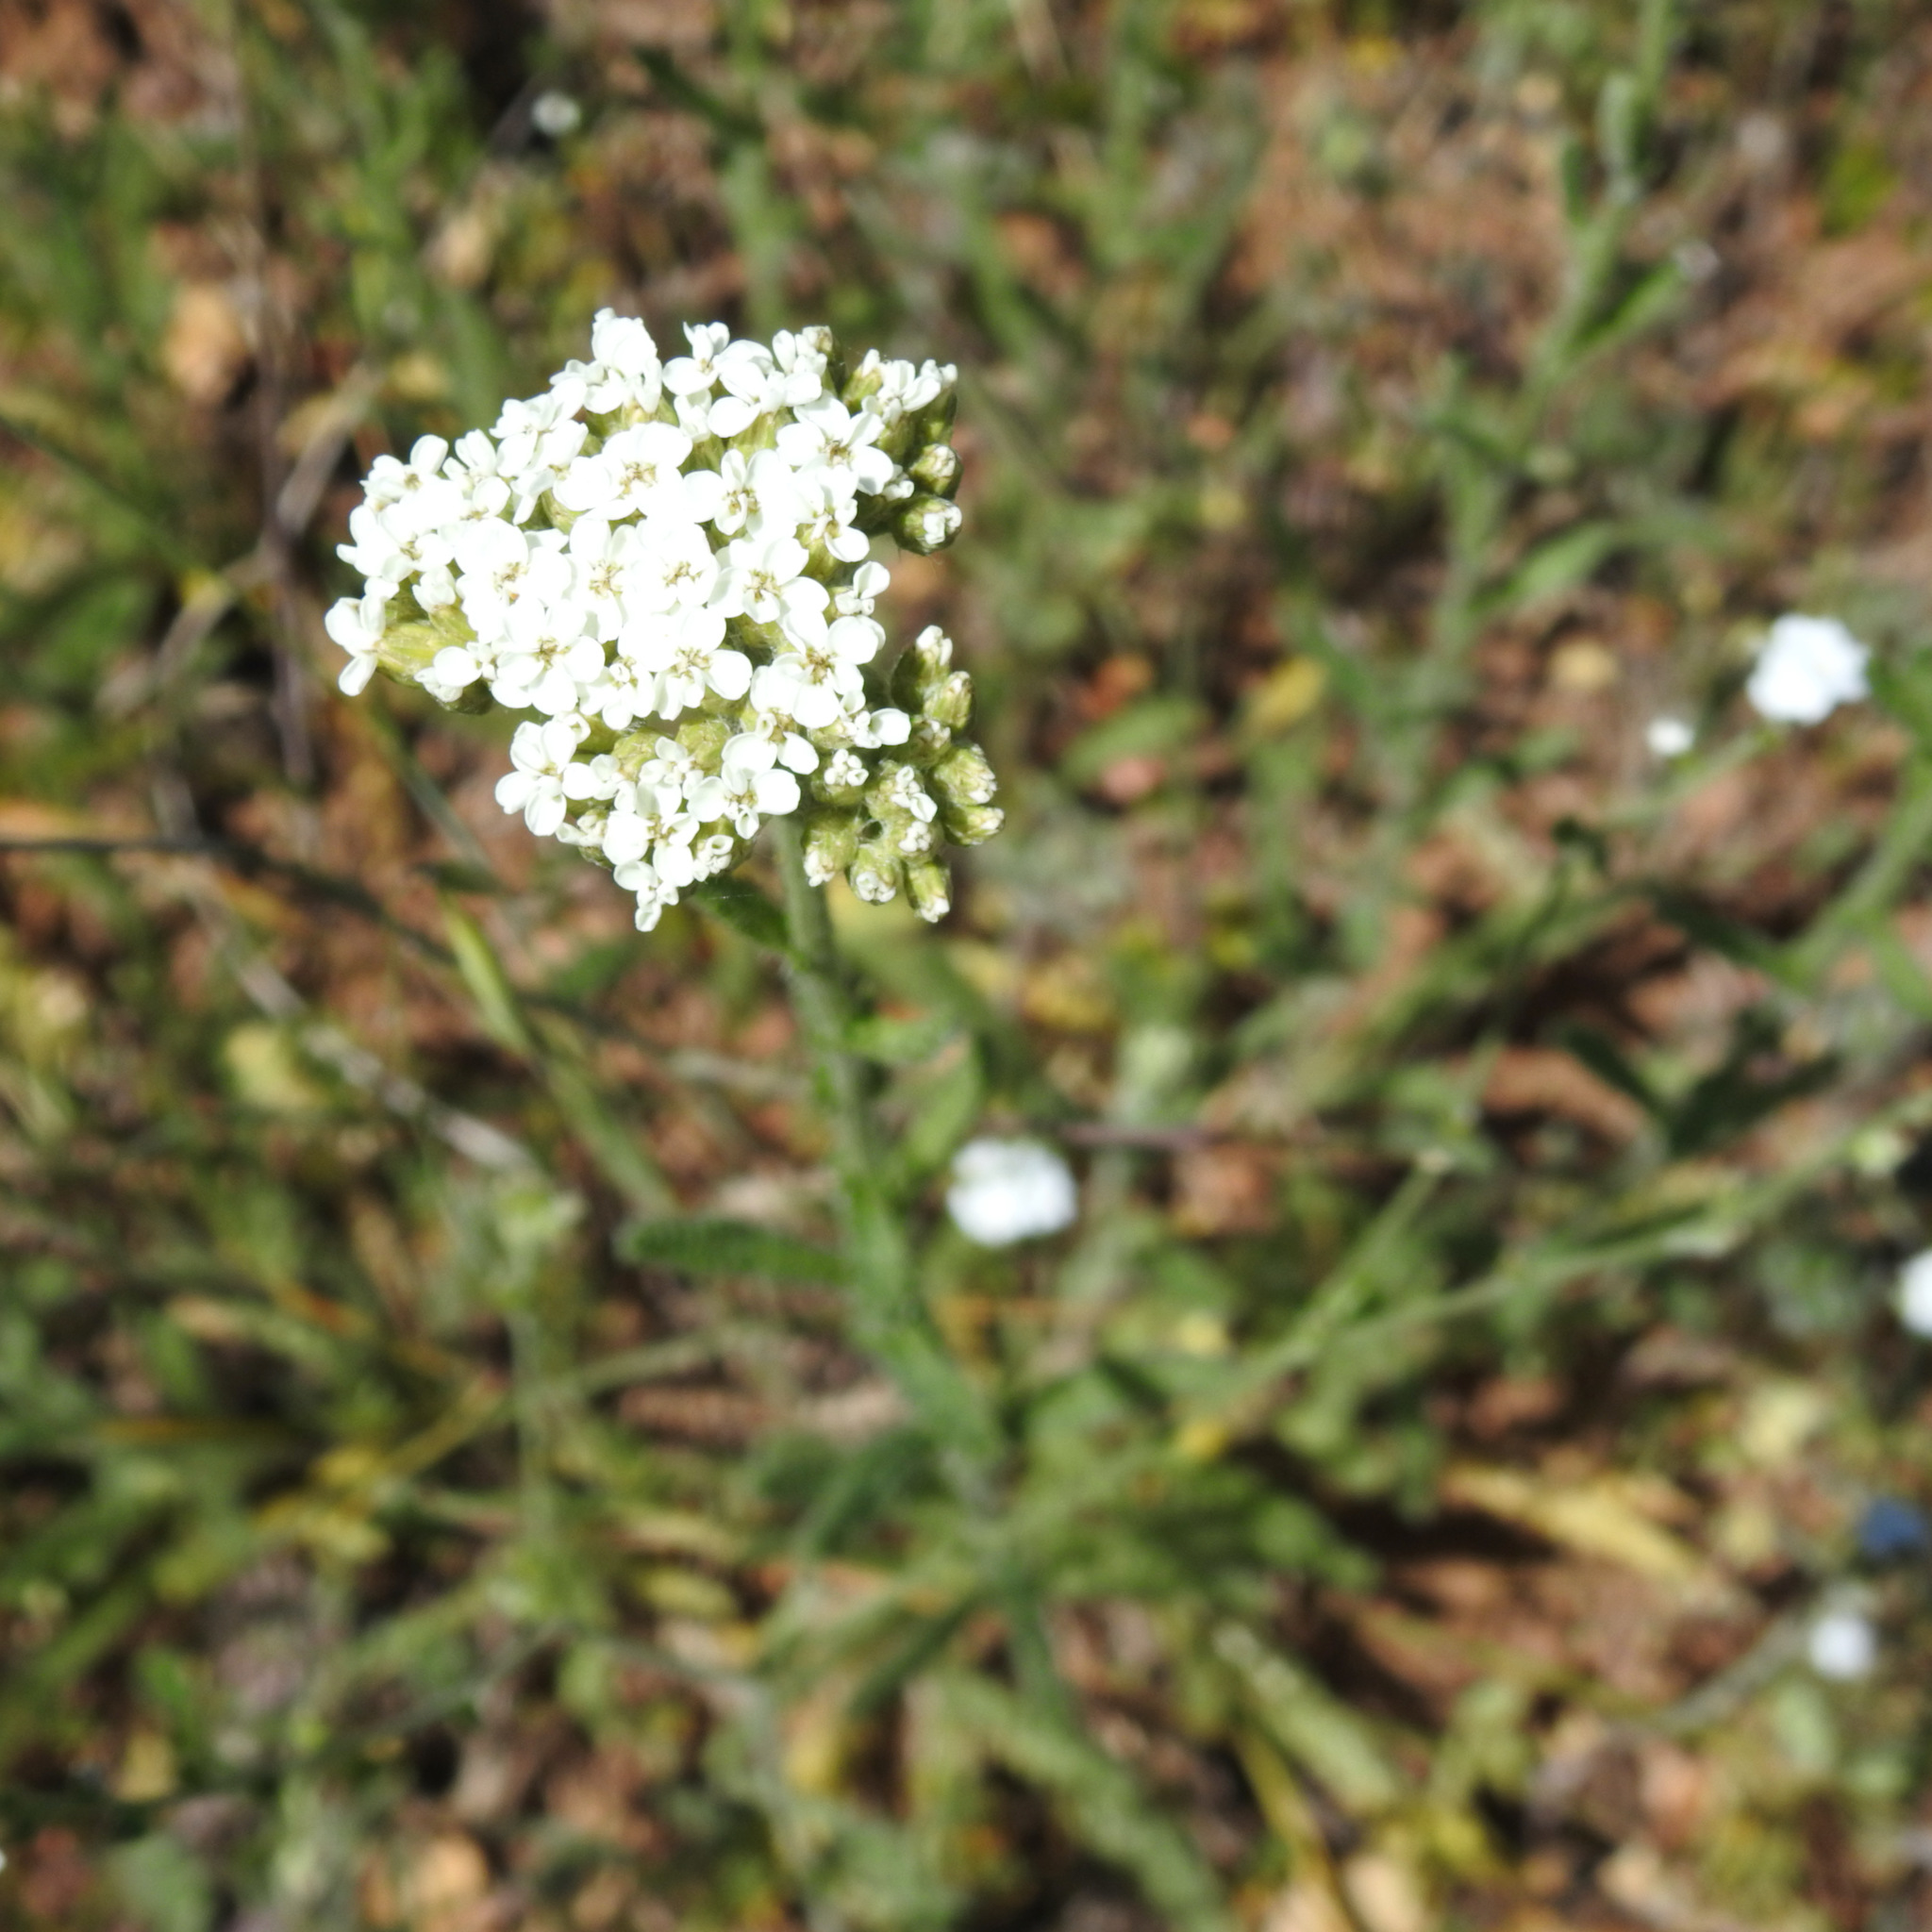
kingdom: Plantae
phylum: Tracheophyta
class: Magnoliopsida
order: Asterales
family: Asteraceae
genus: Achillea
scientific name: Achillea millefolium
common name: Yarrow
